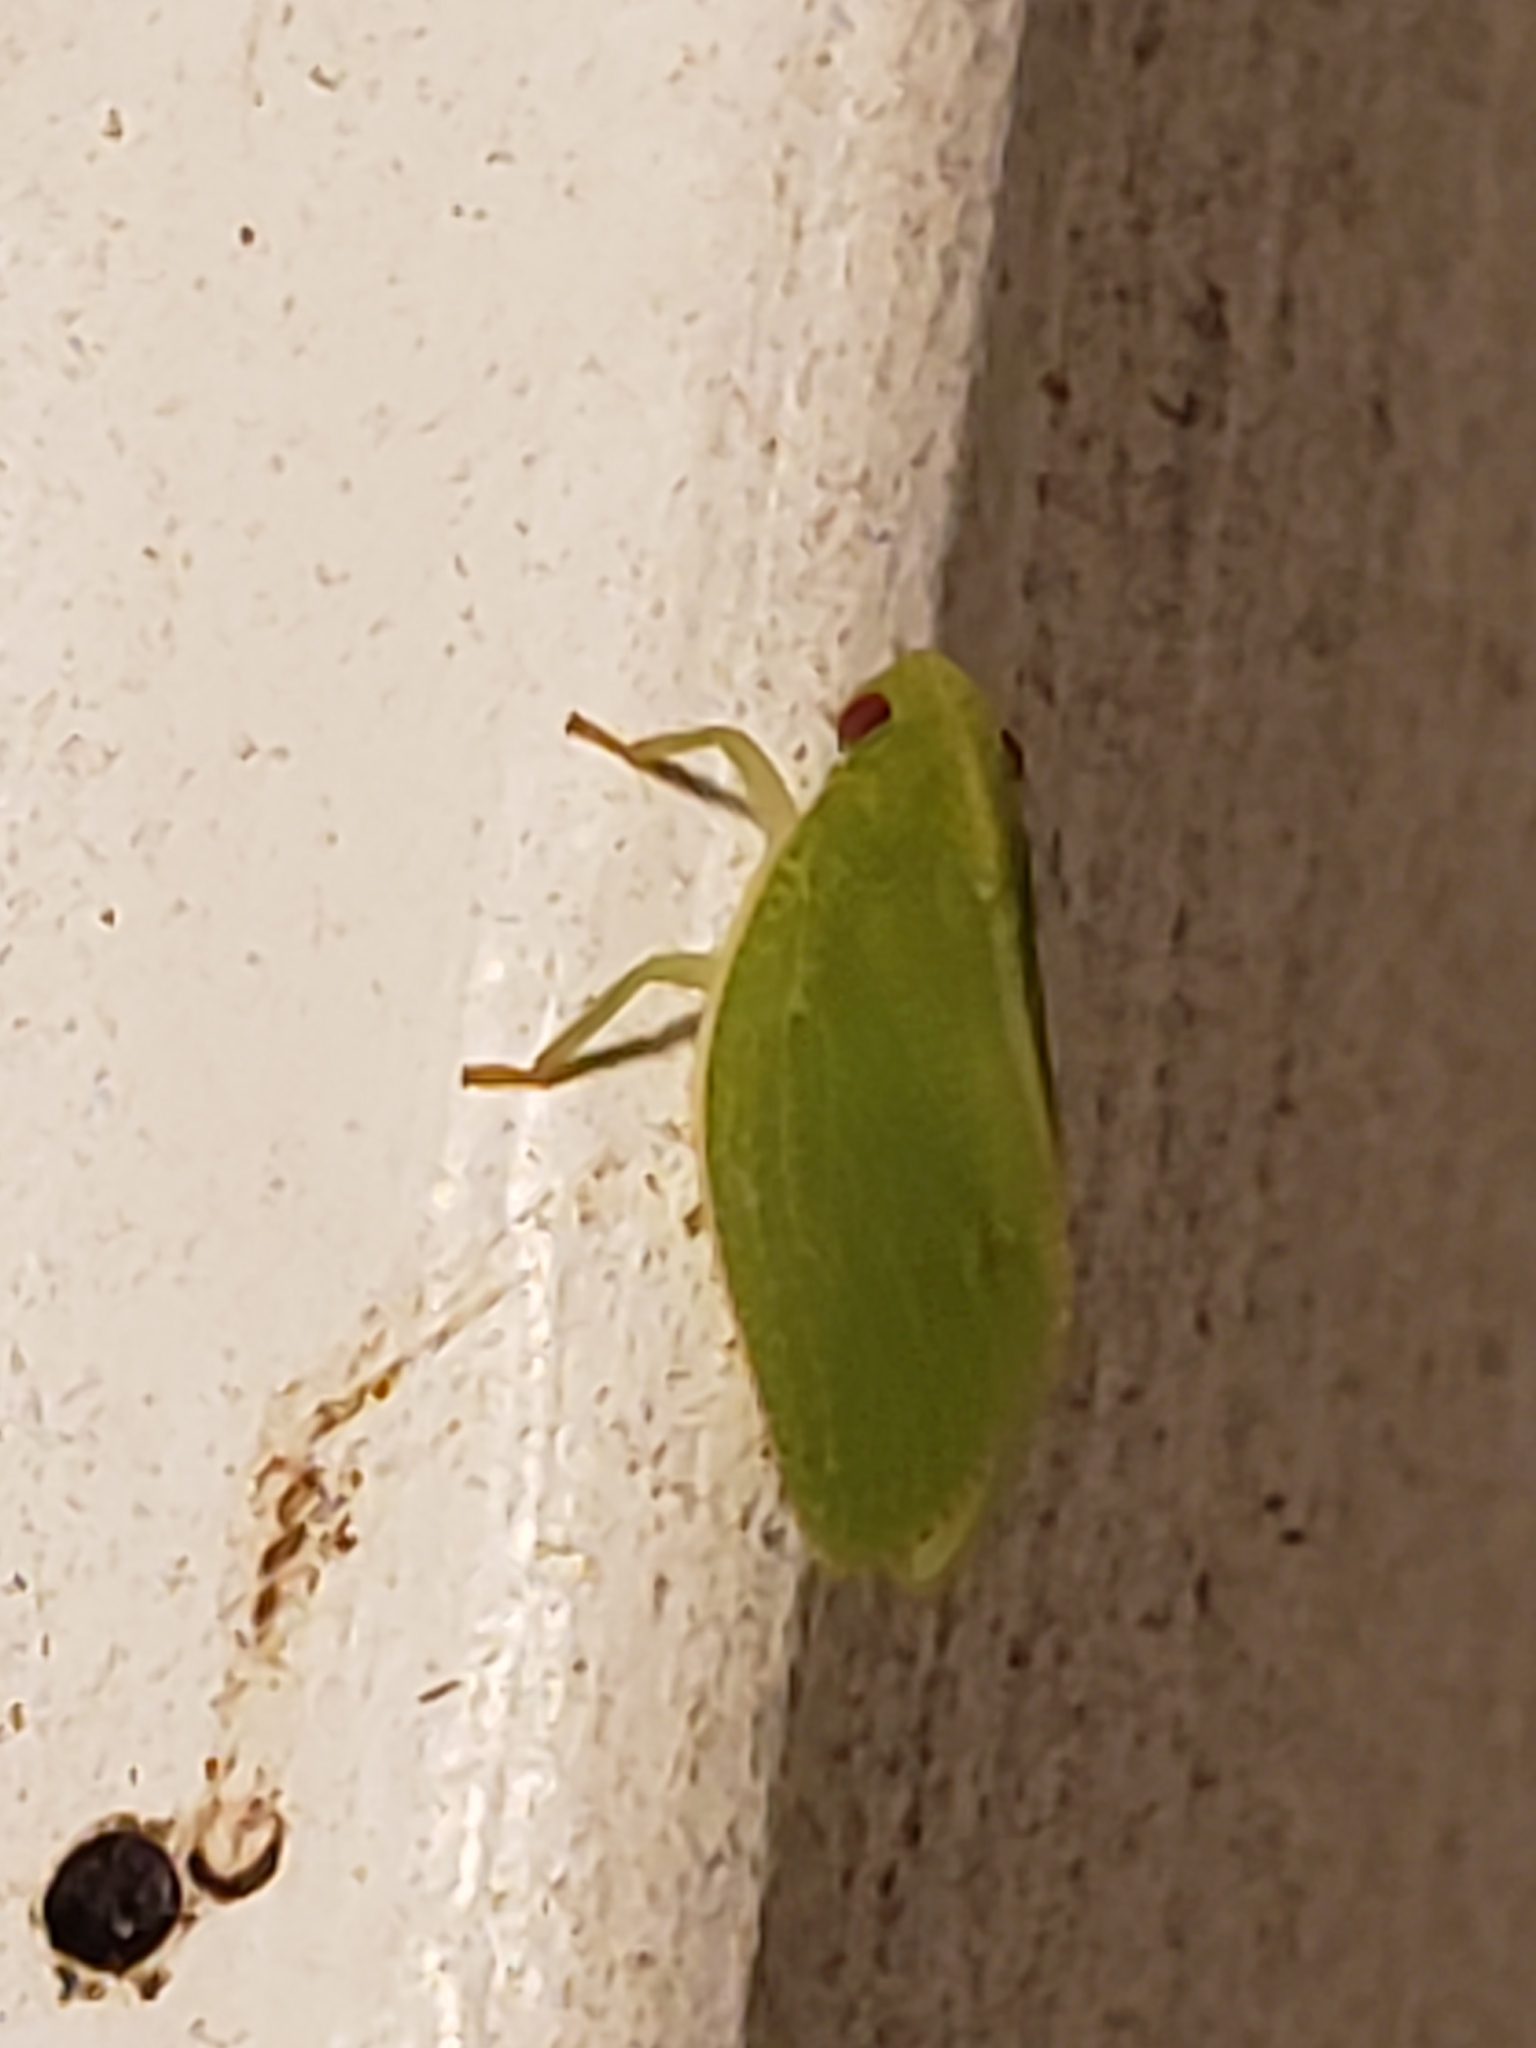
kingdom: Animalia
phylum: Arthropoda
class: Insecta
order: Hemiptera
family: Acanaloniidae
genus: Acanalonia
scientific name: Acanalonia conica
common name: Green cone-headed planthopper
